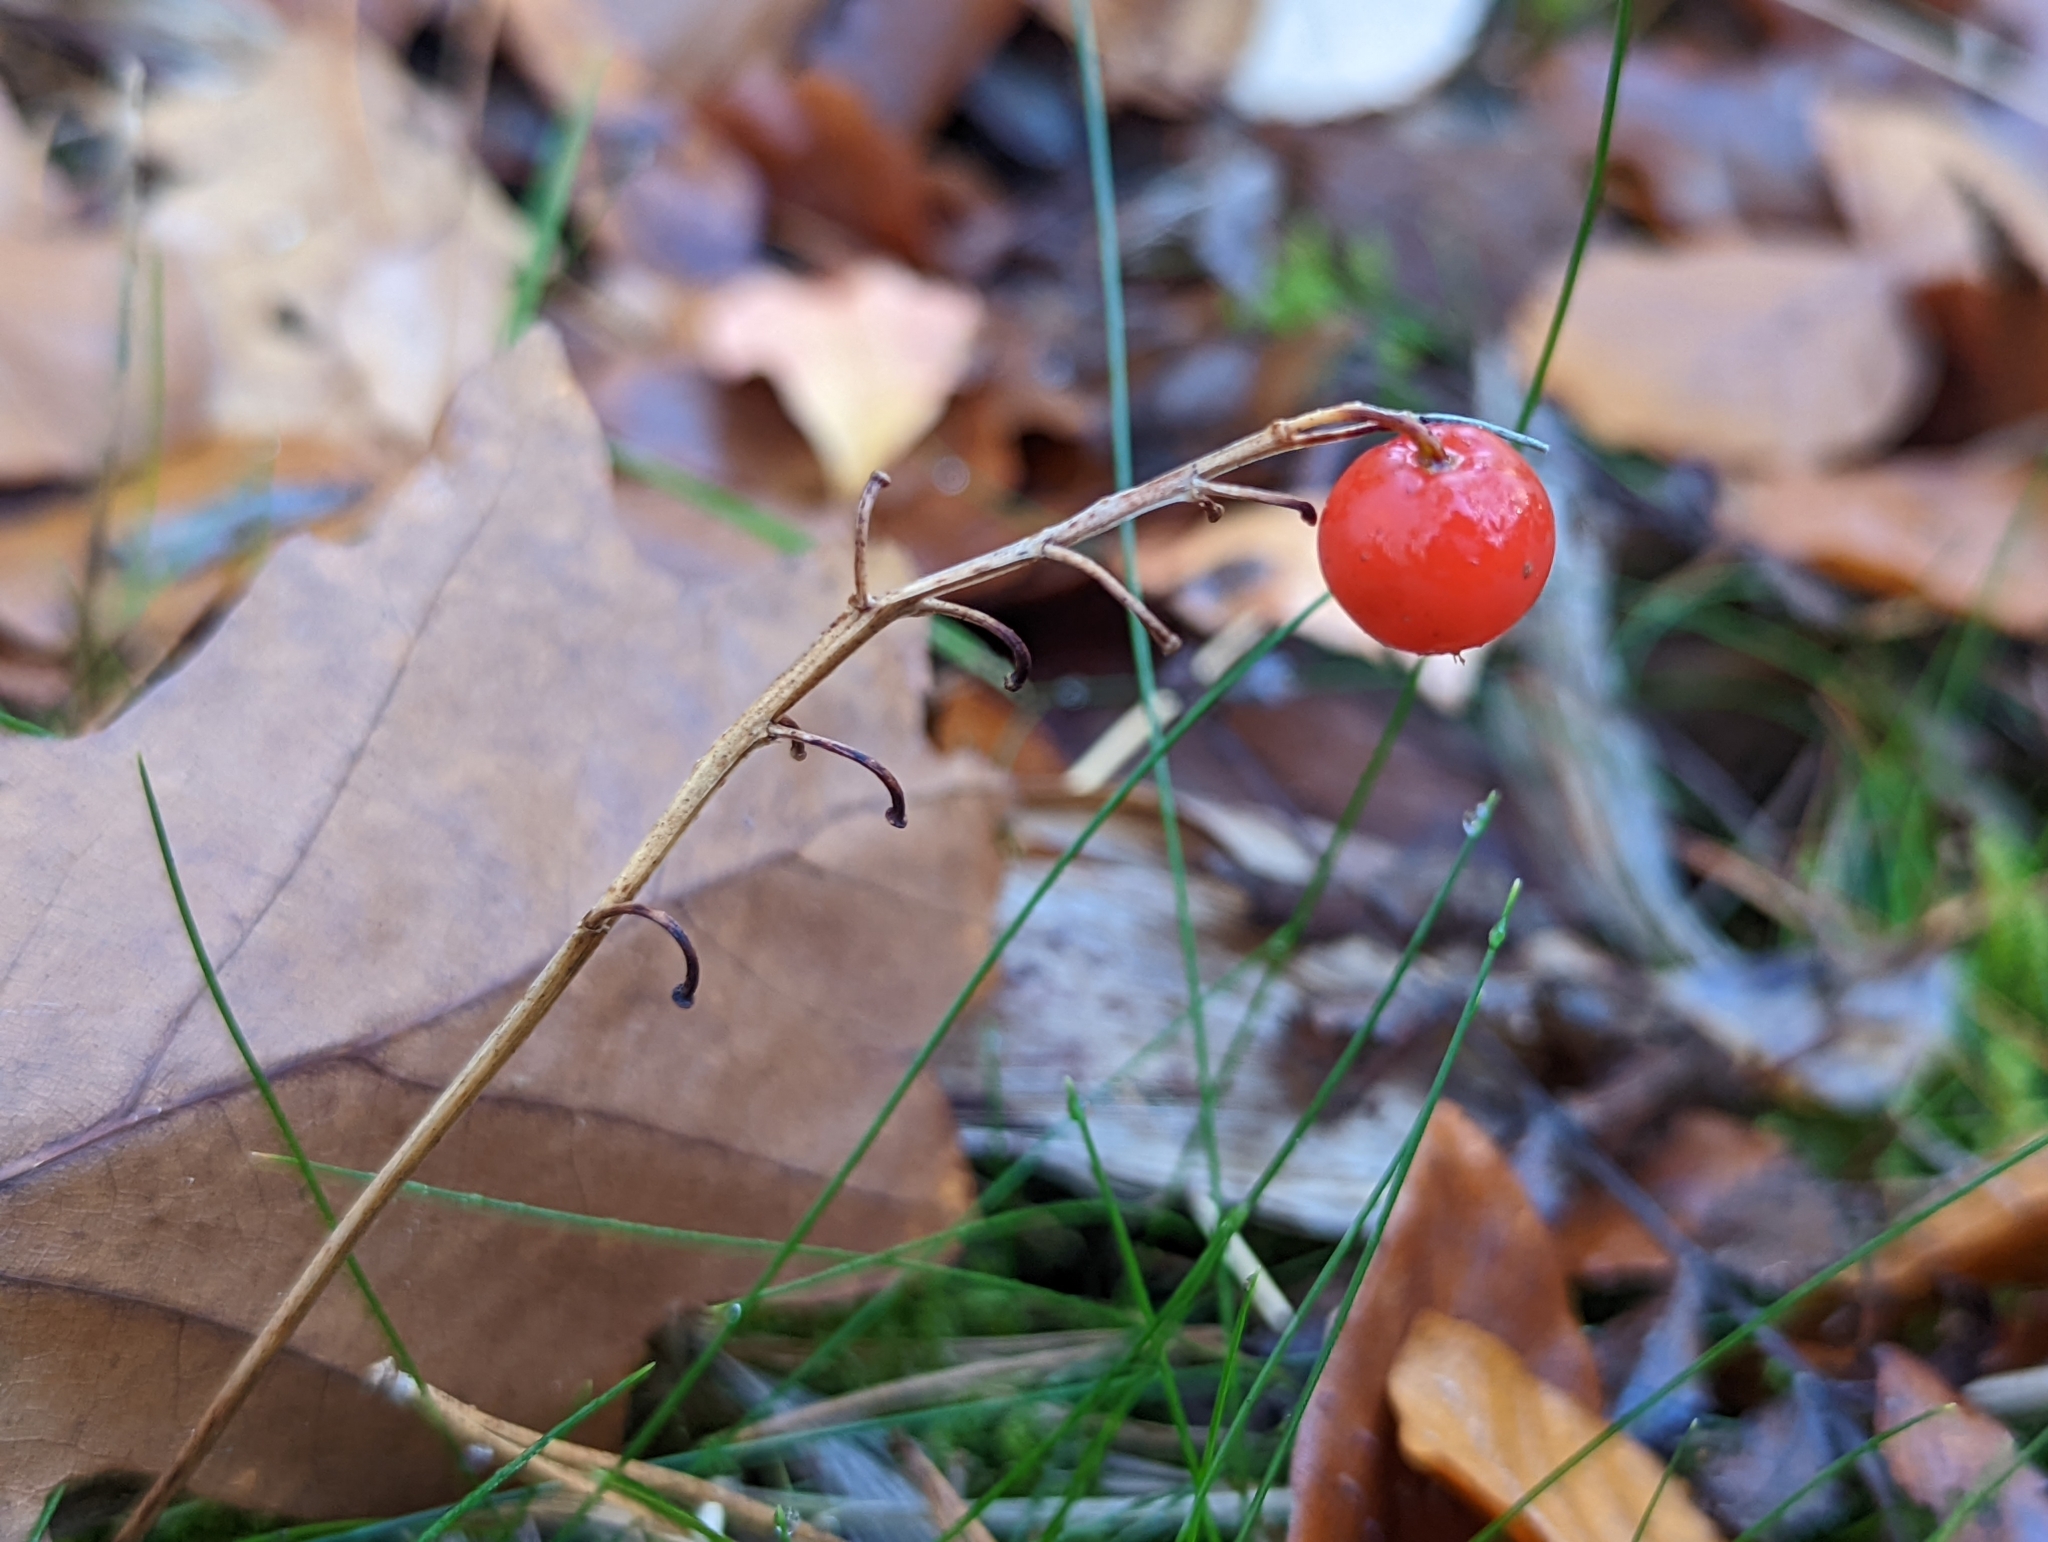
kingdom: Plantae
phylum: Tracheophyta
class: Liliopsida
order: Asparagales
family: Asparagaceae
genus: Convallaria
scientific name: Convallaria majalis
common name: Lily-of-the-valley
